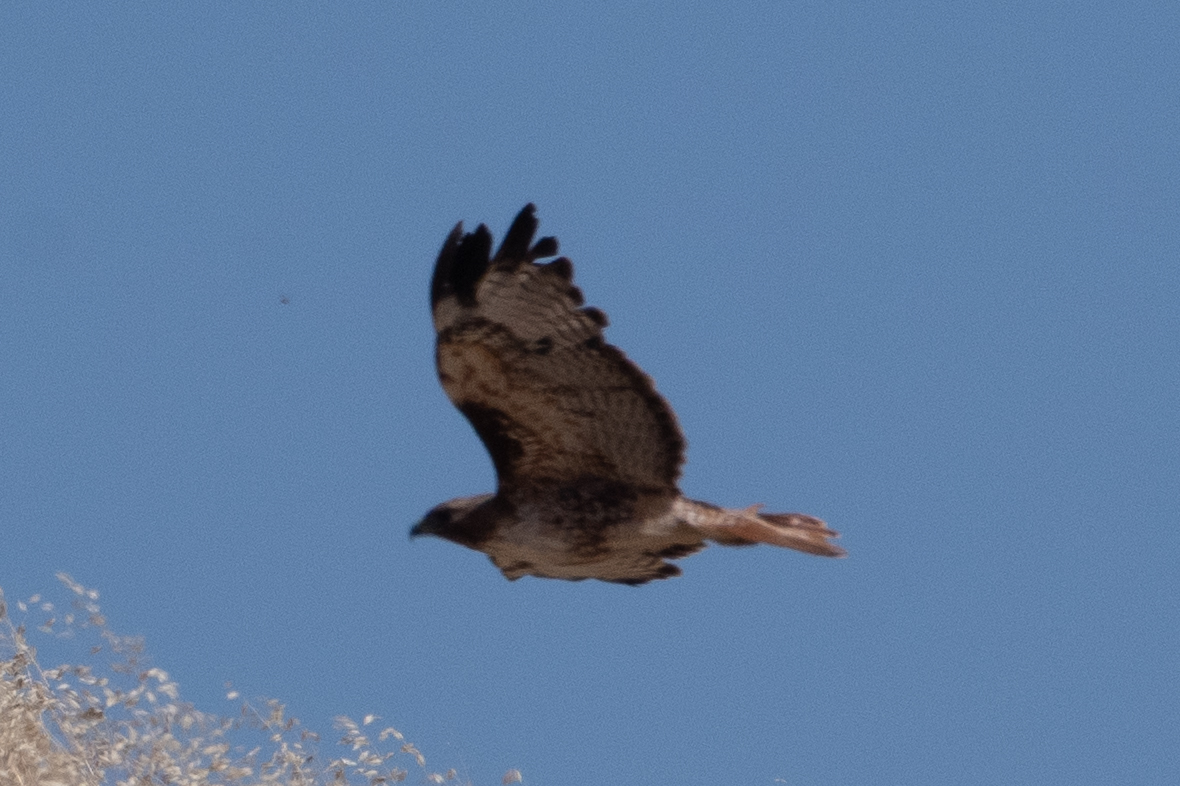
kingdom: Animalia
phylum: Chordata
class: Aves
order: Accipitriformes
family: Accipitridae
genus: Buteo
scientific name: Buteo jamaicensis
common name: Red-tailed hawk
